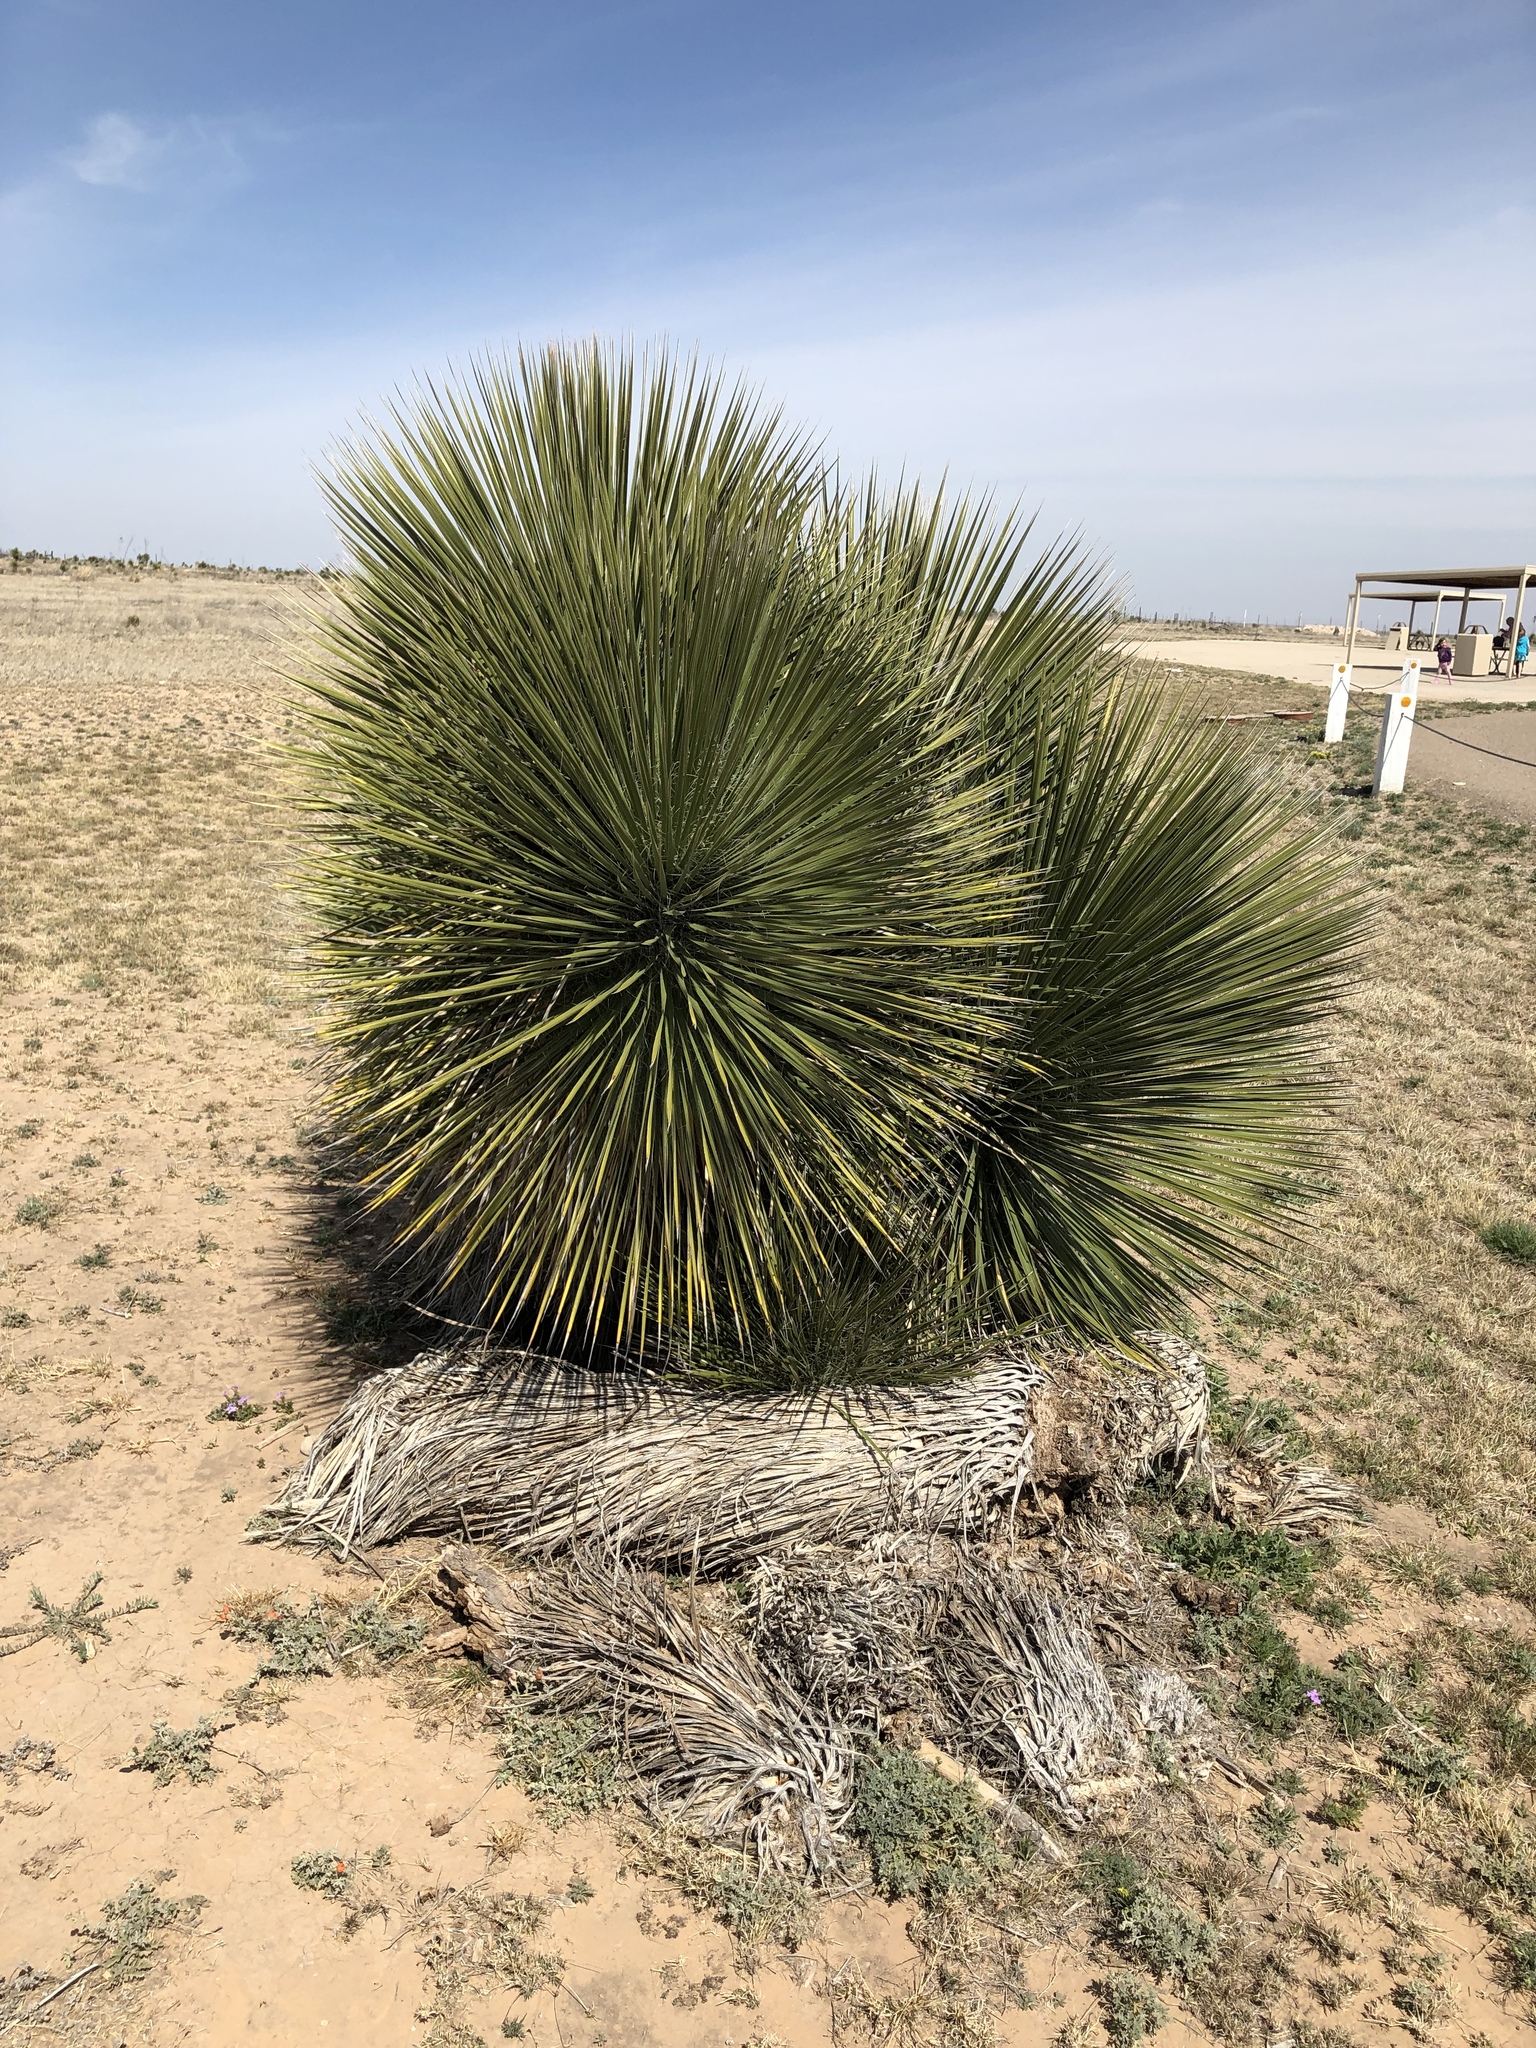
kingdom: Plantae
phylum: Tracheophyta
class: Liliopsida
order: Asparagales
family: Asparagaceae
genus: Yucca
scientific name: Yucca elata
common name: Palmella
